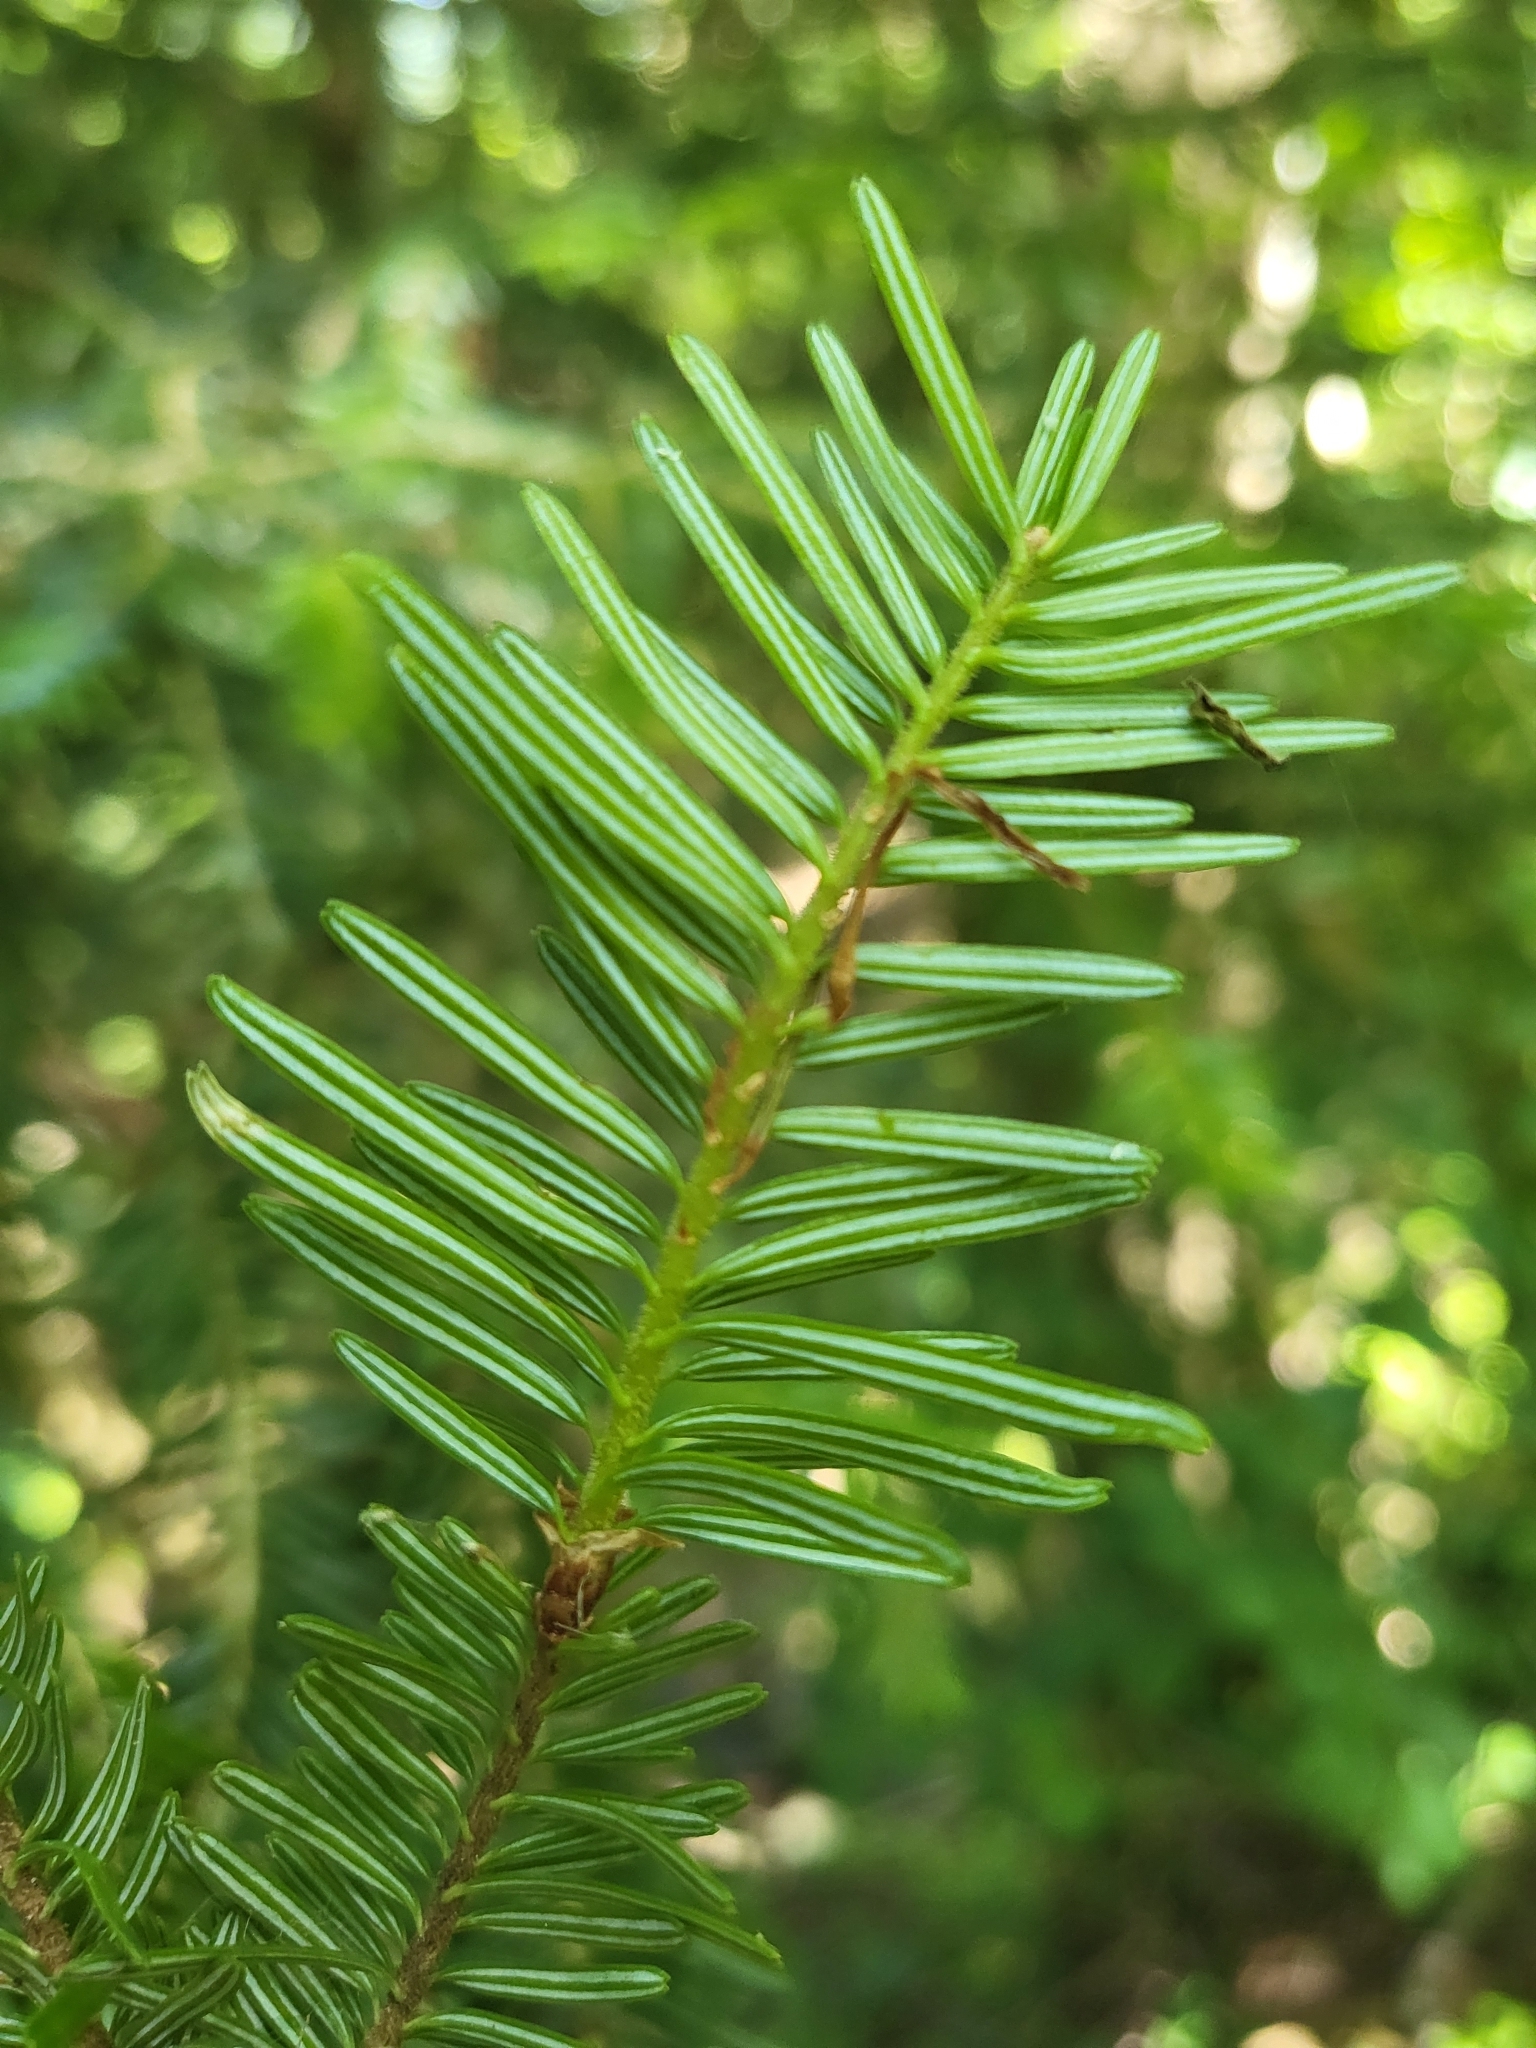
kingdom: Plantae
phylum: Tracheophyta
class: Pinopsida
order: Pinales
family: Pinaceae
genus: Abies
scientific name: Abies alba
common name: Silver fir
